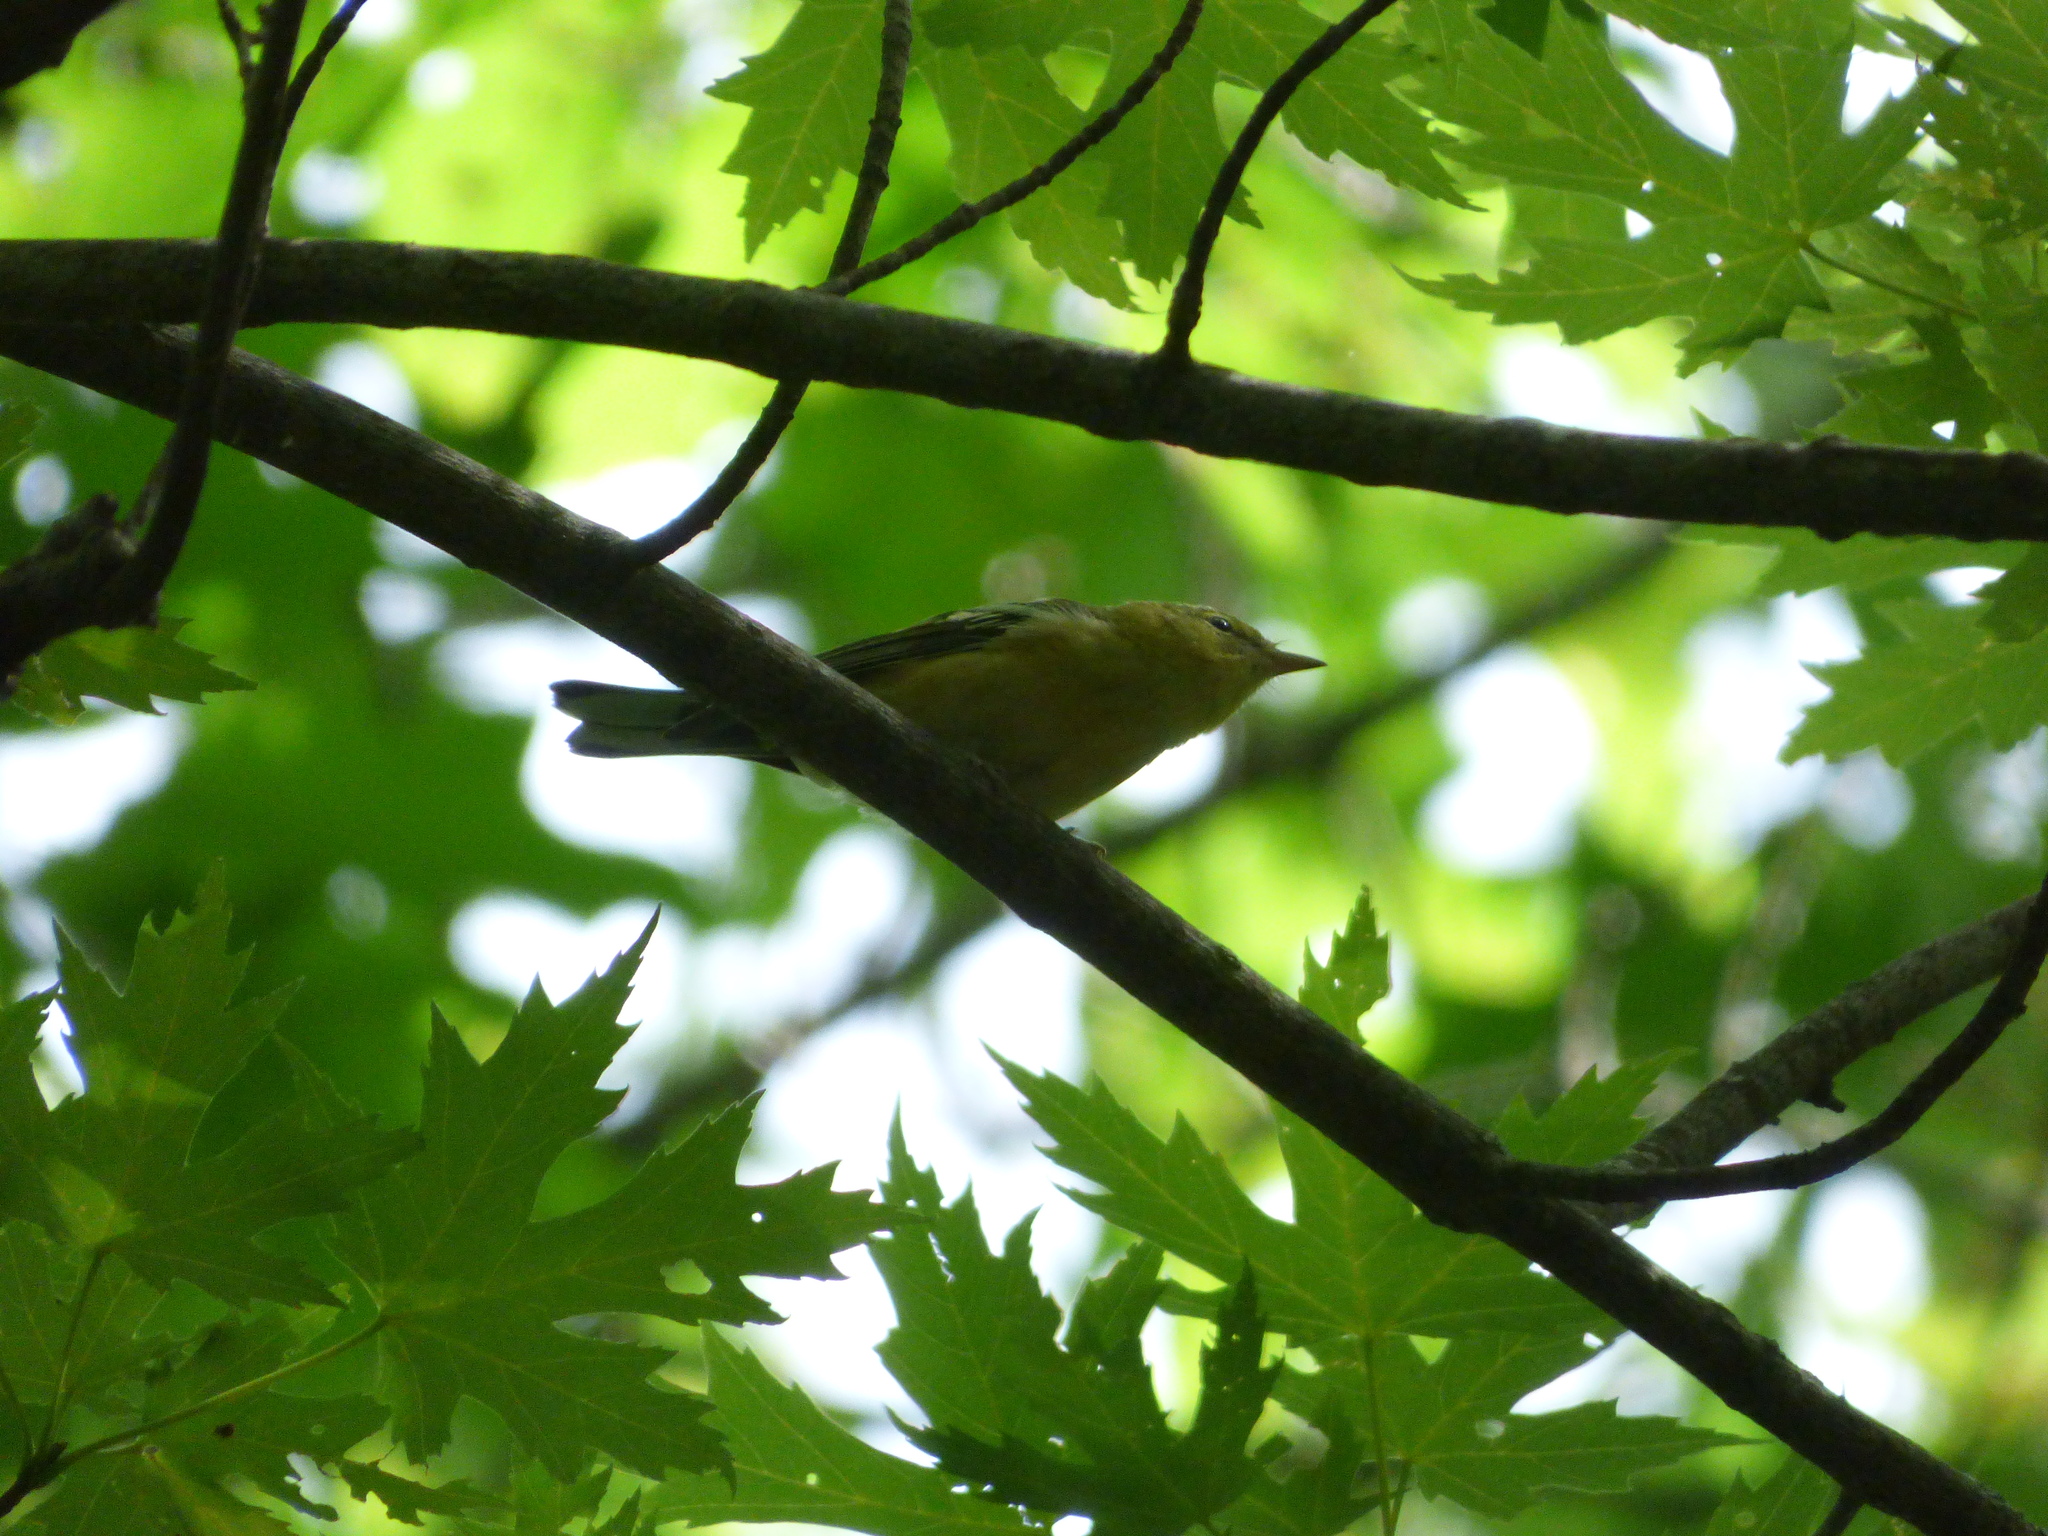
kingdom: Animalia
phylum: Chordata
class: Aves
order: Passeriformes
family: Parulidae
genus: Setophaga
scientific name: Setophaga castanea
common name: Bay-breasted warbler
